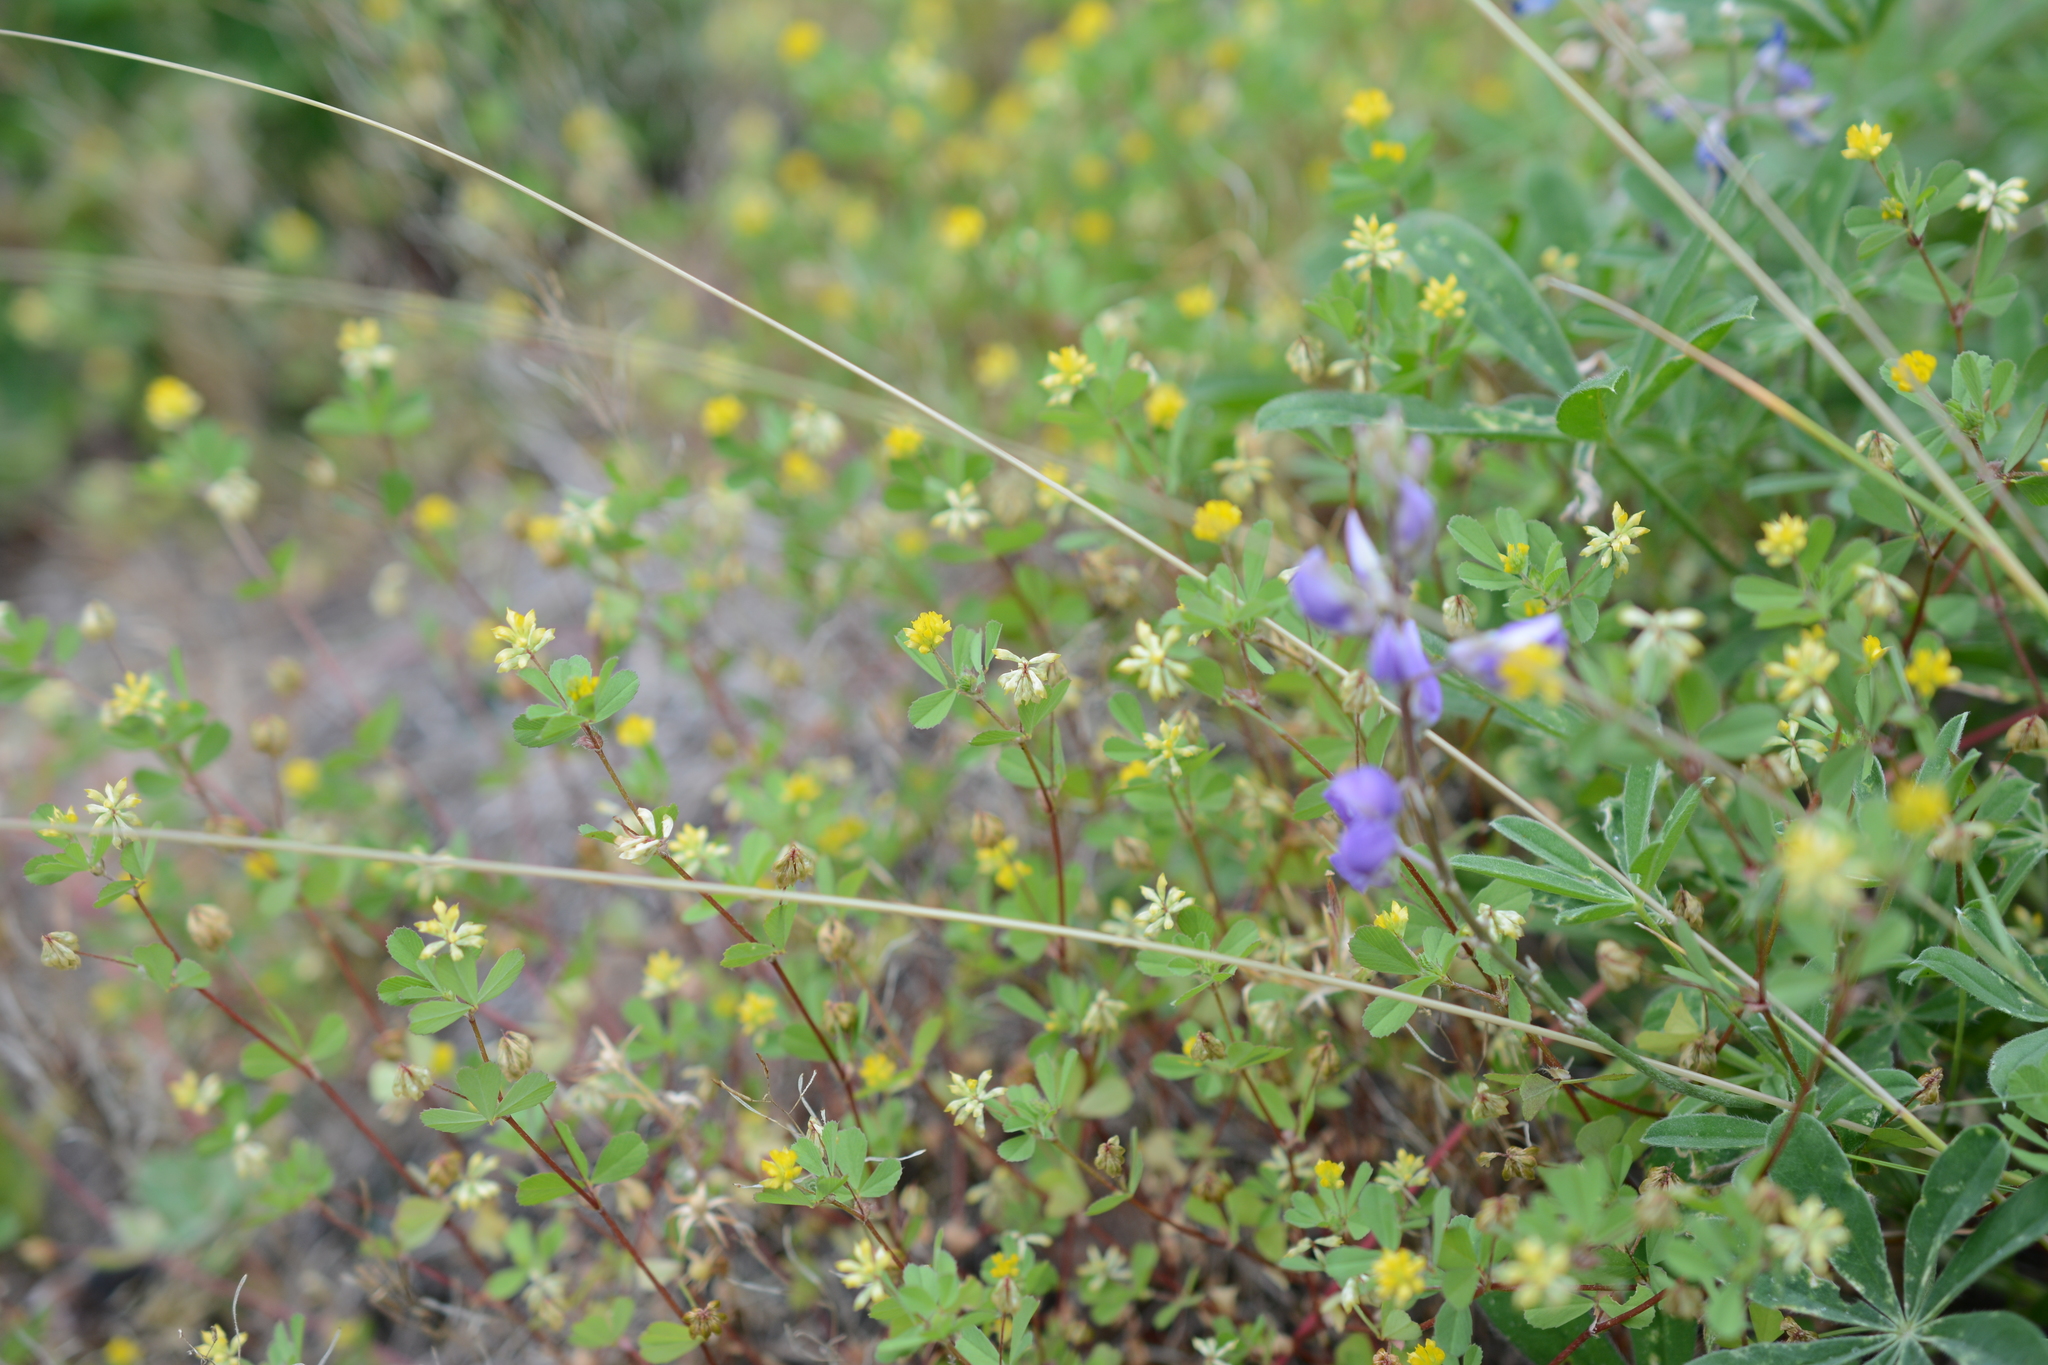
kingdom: Plantae
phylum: Tracheophyta
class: Magnoliopsida
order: Fabales
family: Fabaceae
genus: Trifolium
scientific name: Trifolium dubium
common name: Suckling clover
